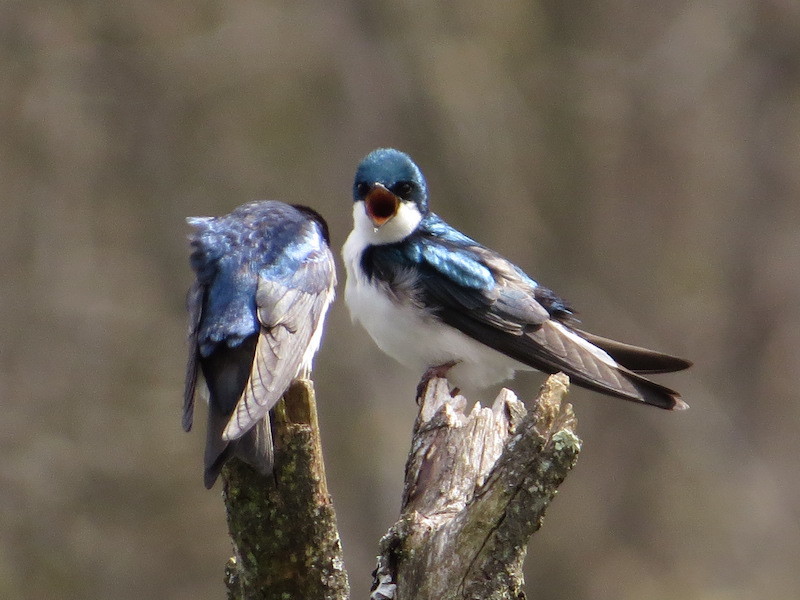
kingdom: Animalia
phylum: Chordata
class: Aves
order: Passeriformes
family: Hirundinidae
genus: Tachycineta
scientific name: Tachycineta bicolor
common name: Tree swallow
